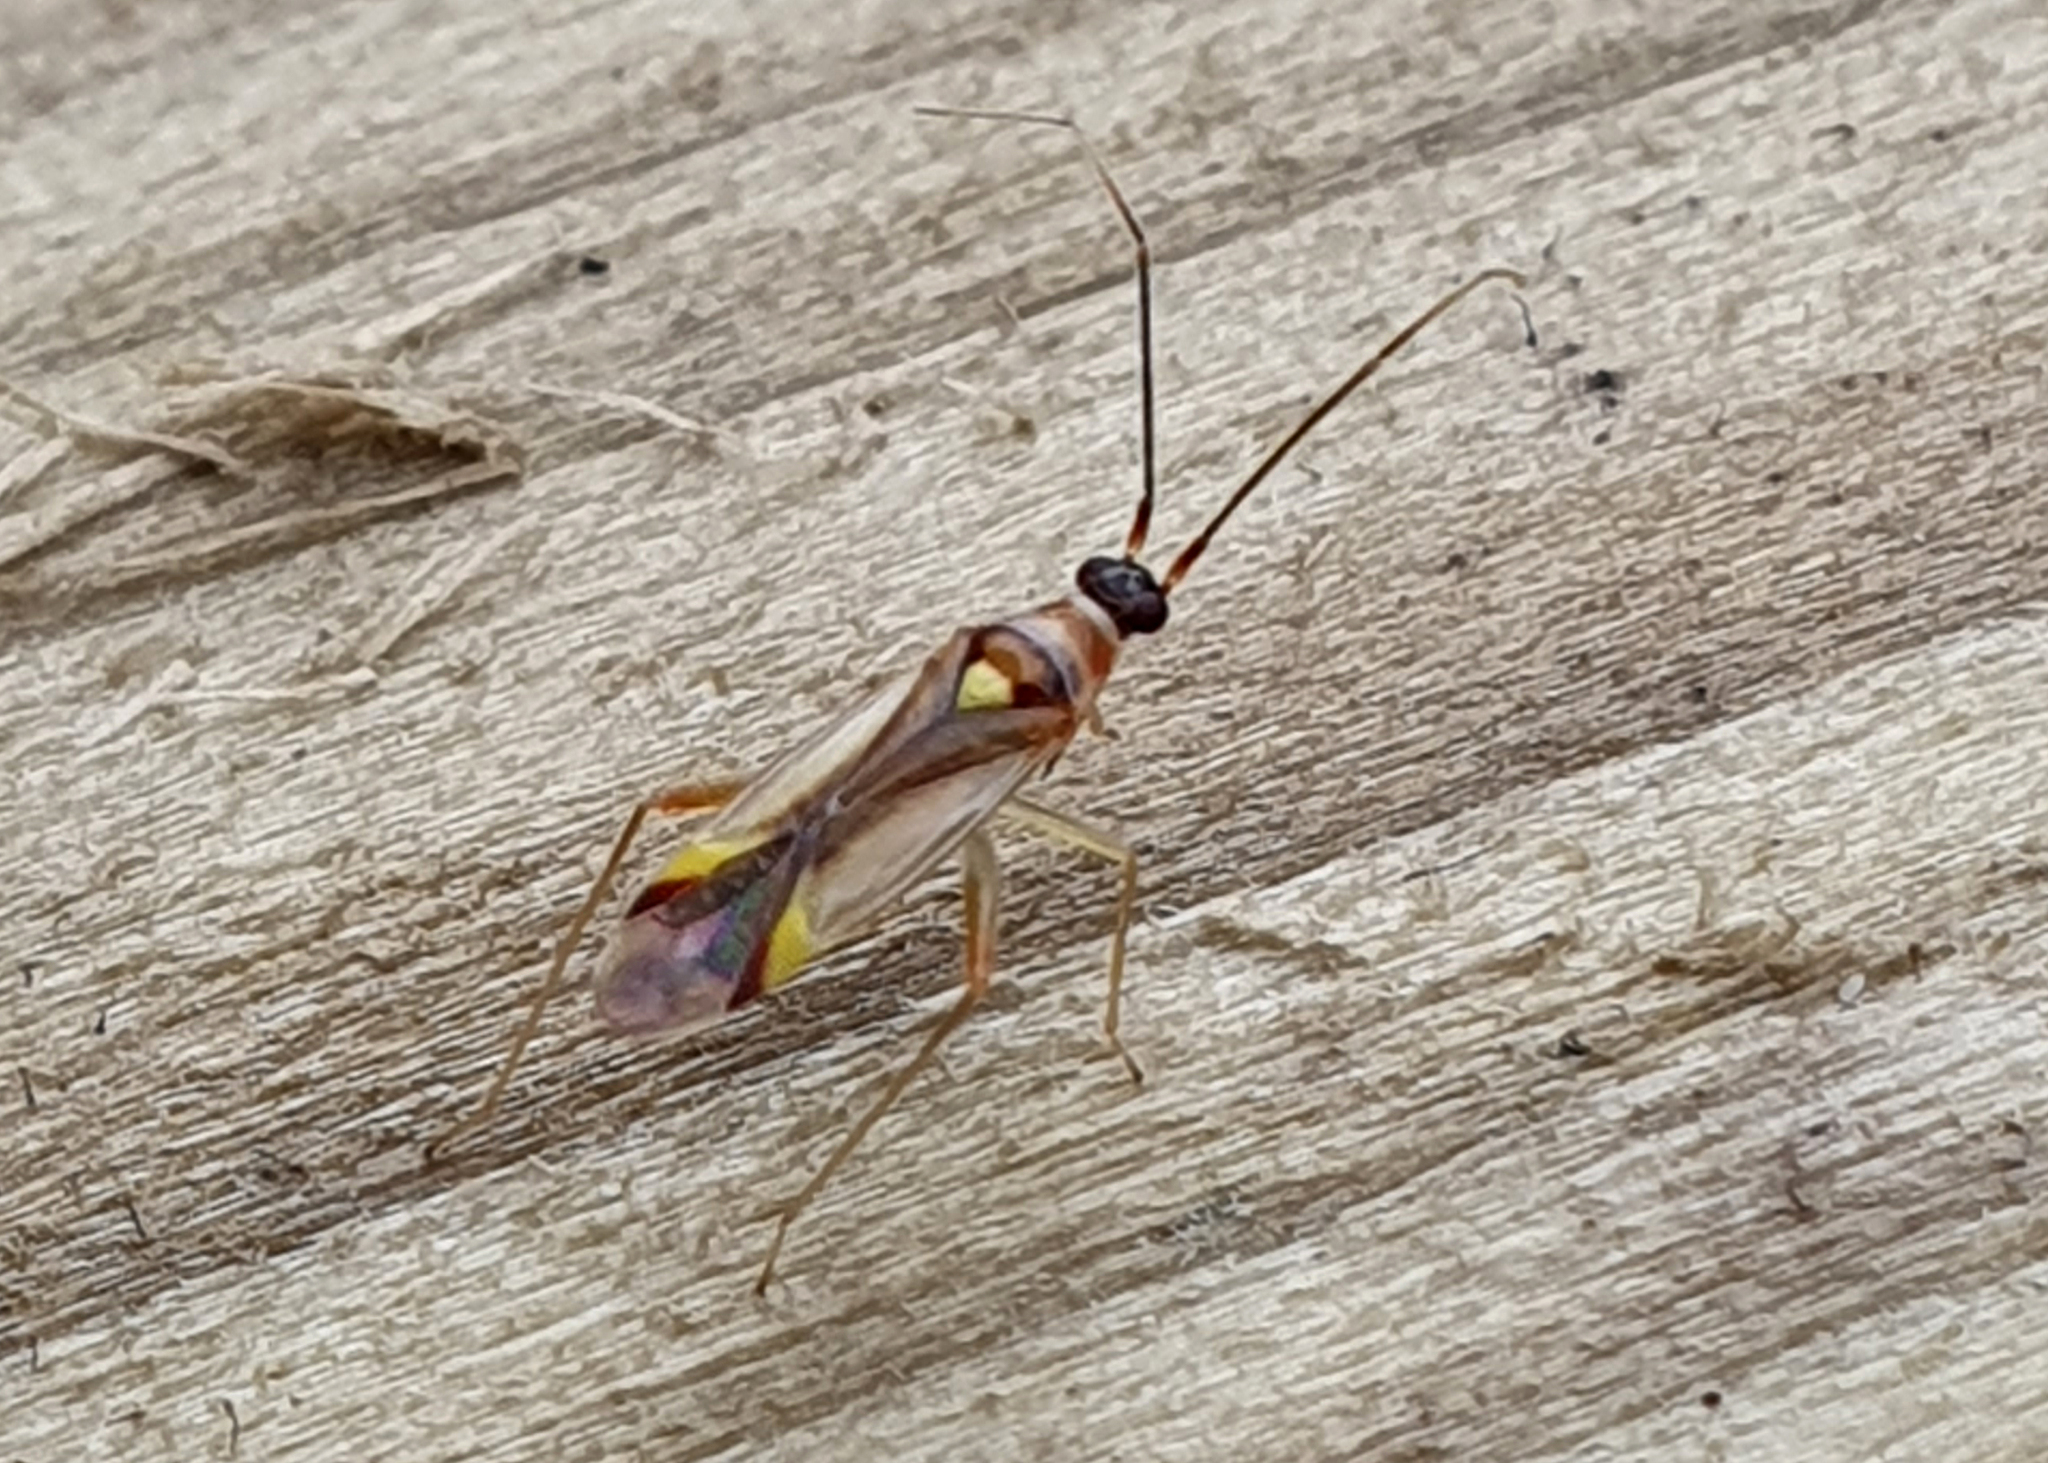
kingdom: Animalia
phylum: Arthropoda
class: Insecta
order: Hemiptera
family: Miridae
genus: Campyloneura
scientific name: Campyloneura virgula
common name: Predatory bug
